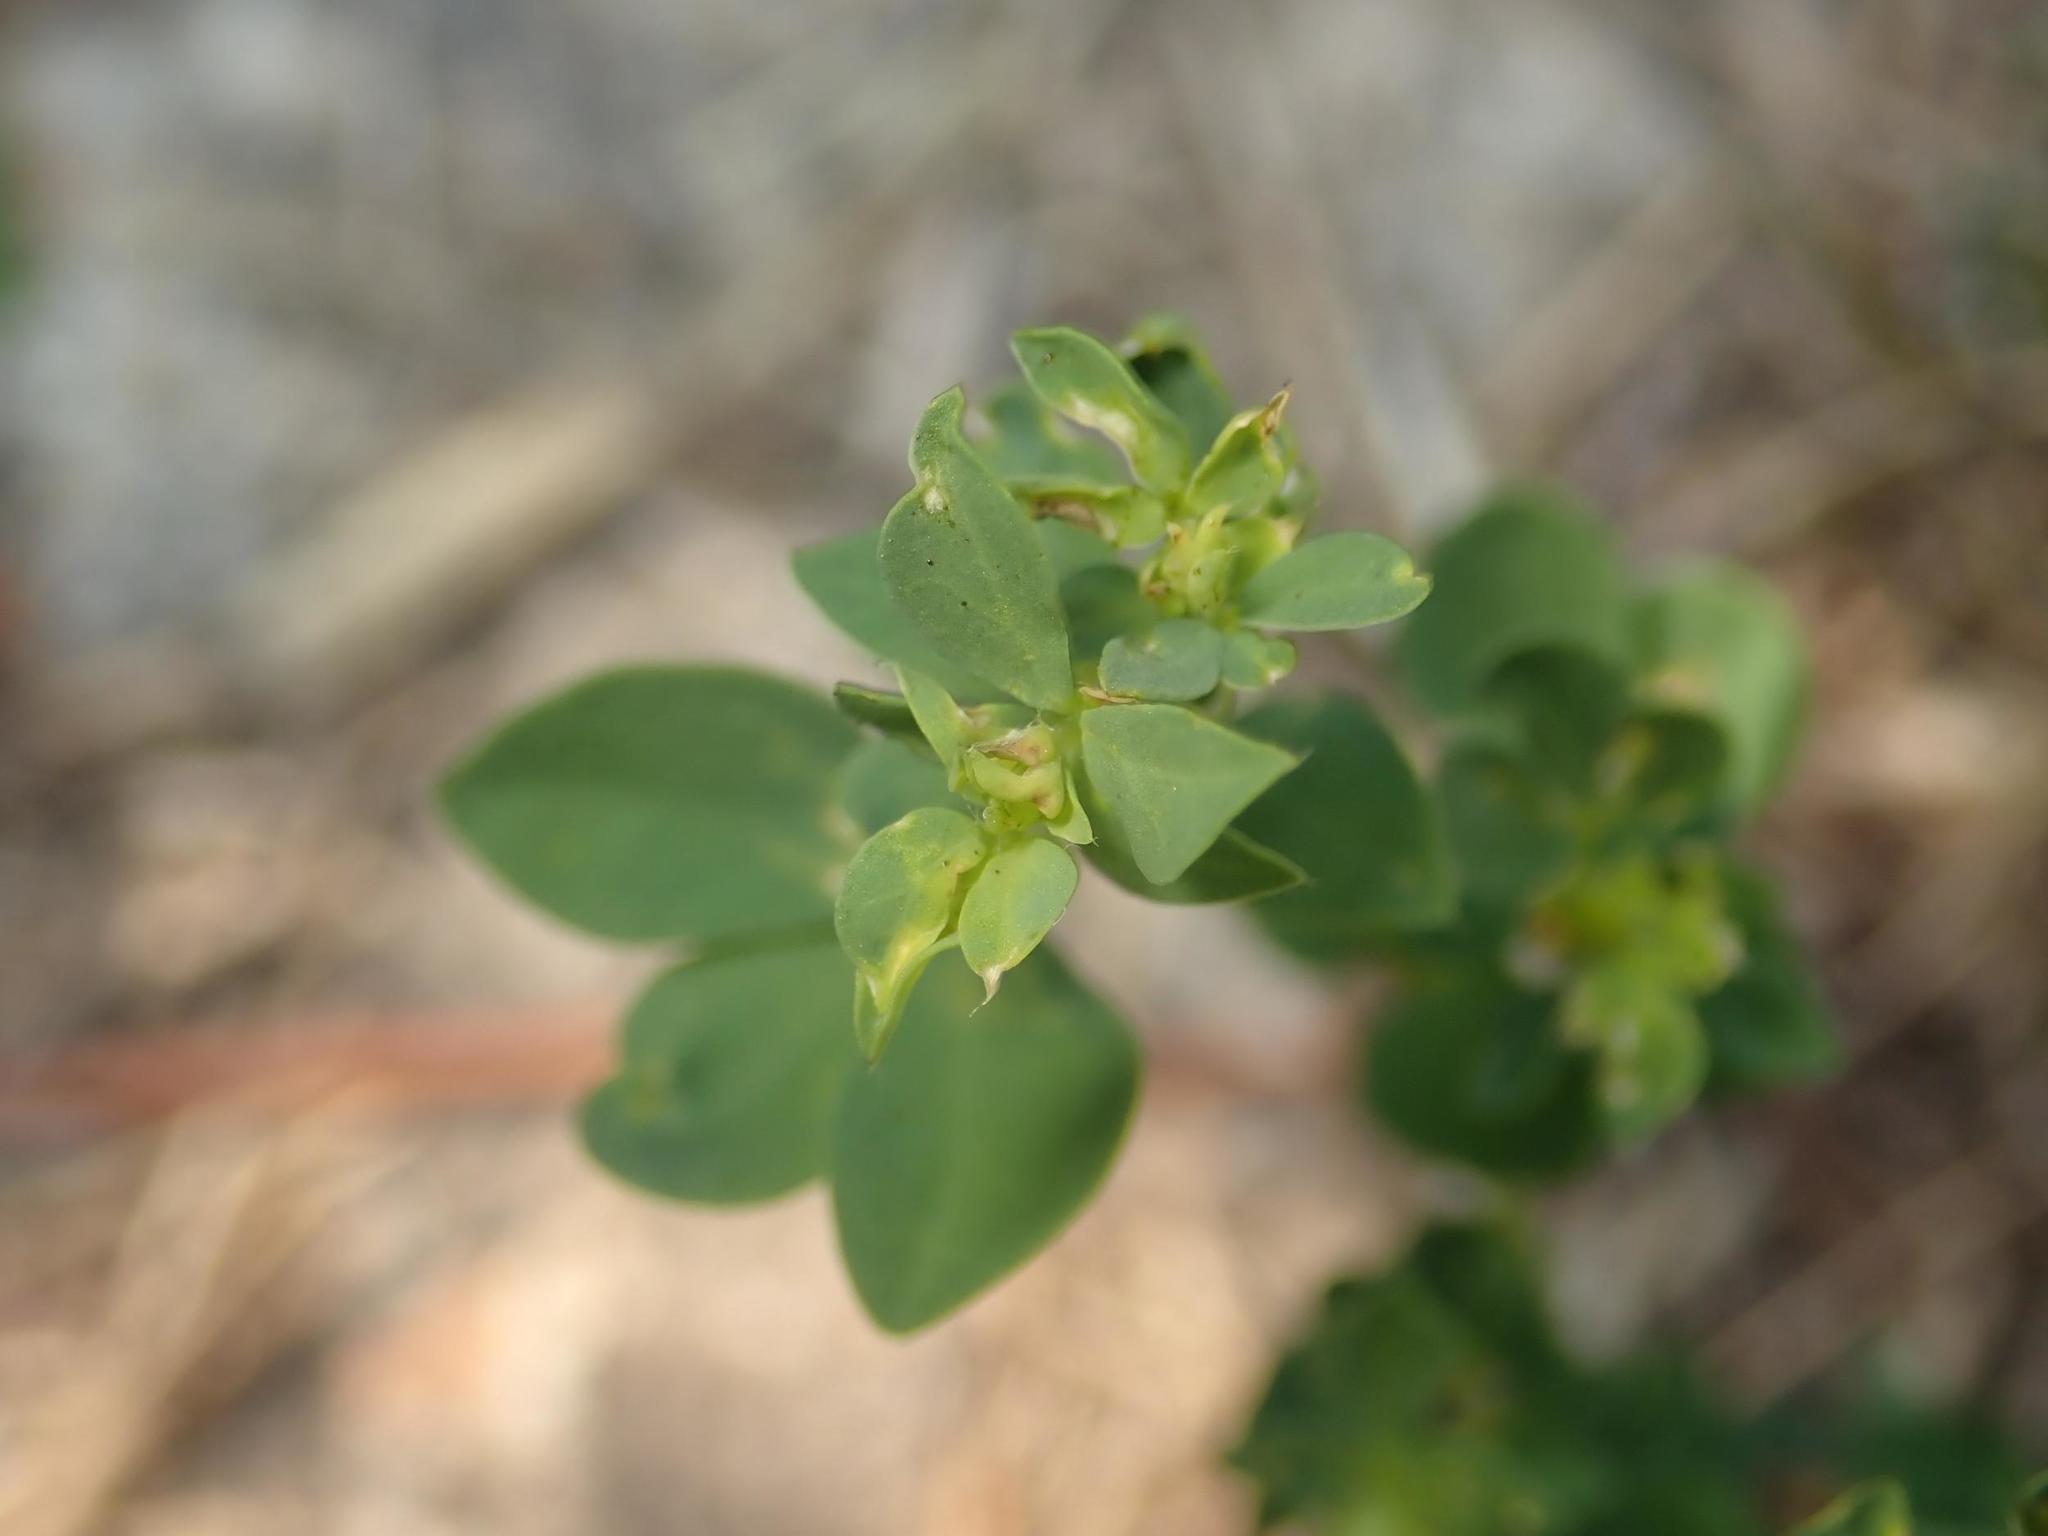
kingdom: Plantae
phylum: Tracheophyta
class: Magnoliopsida
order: Malpighiales
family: Euphorbiaceae
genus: Euphorbia
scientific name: Euphorbia peplus
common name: Petty spurge
